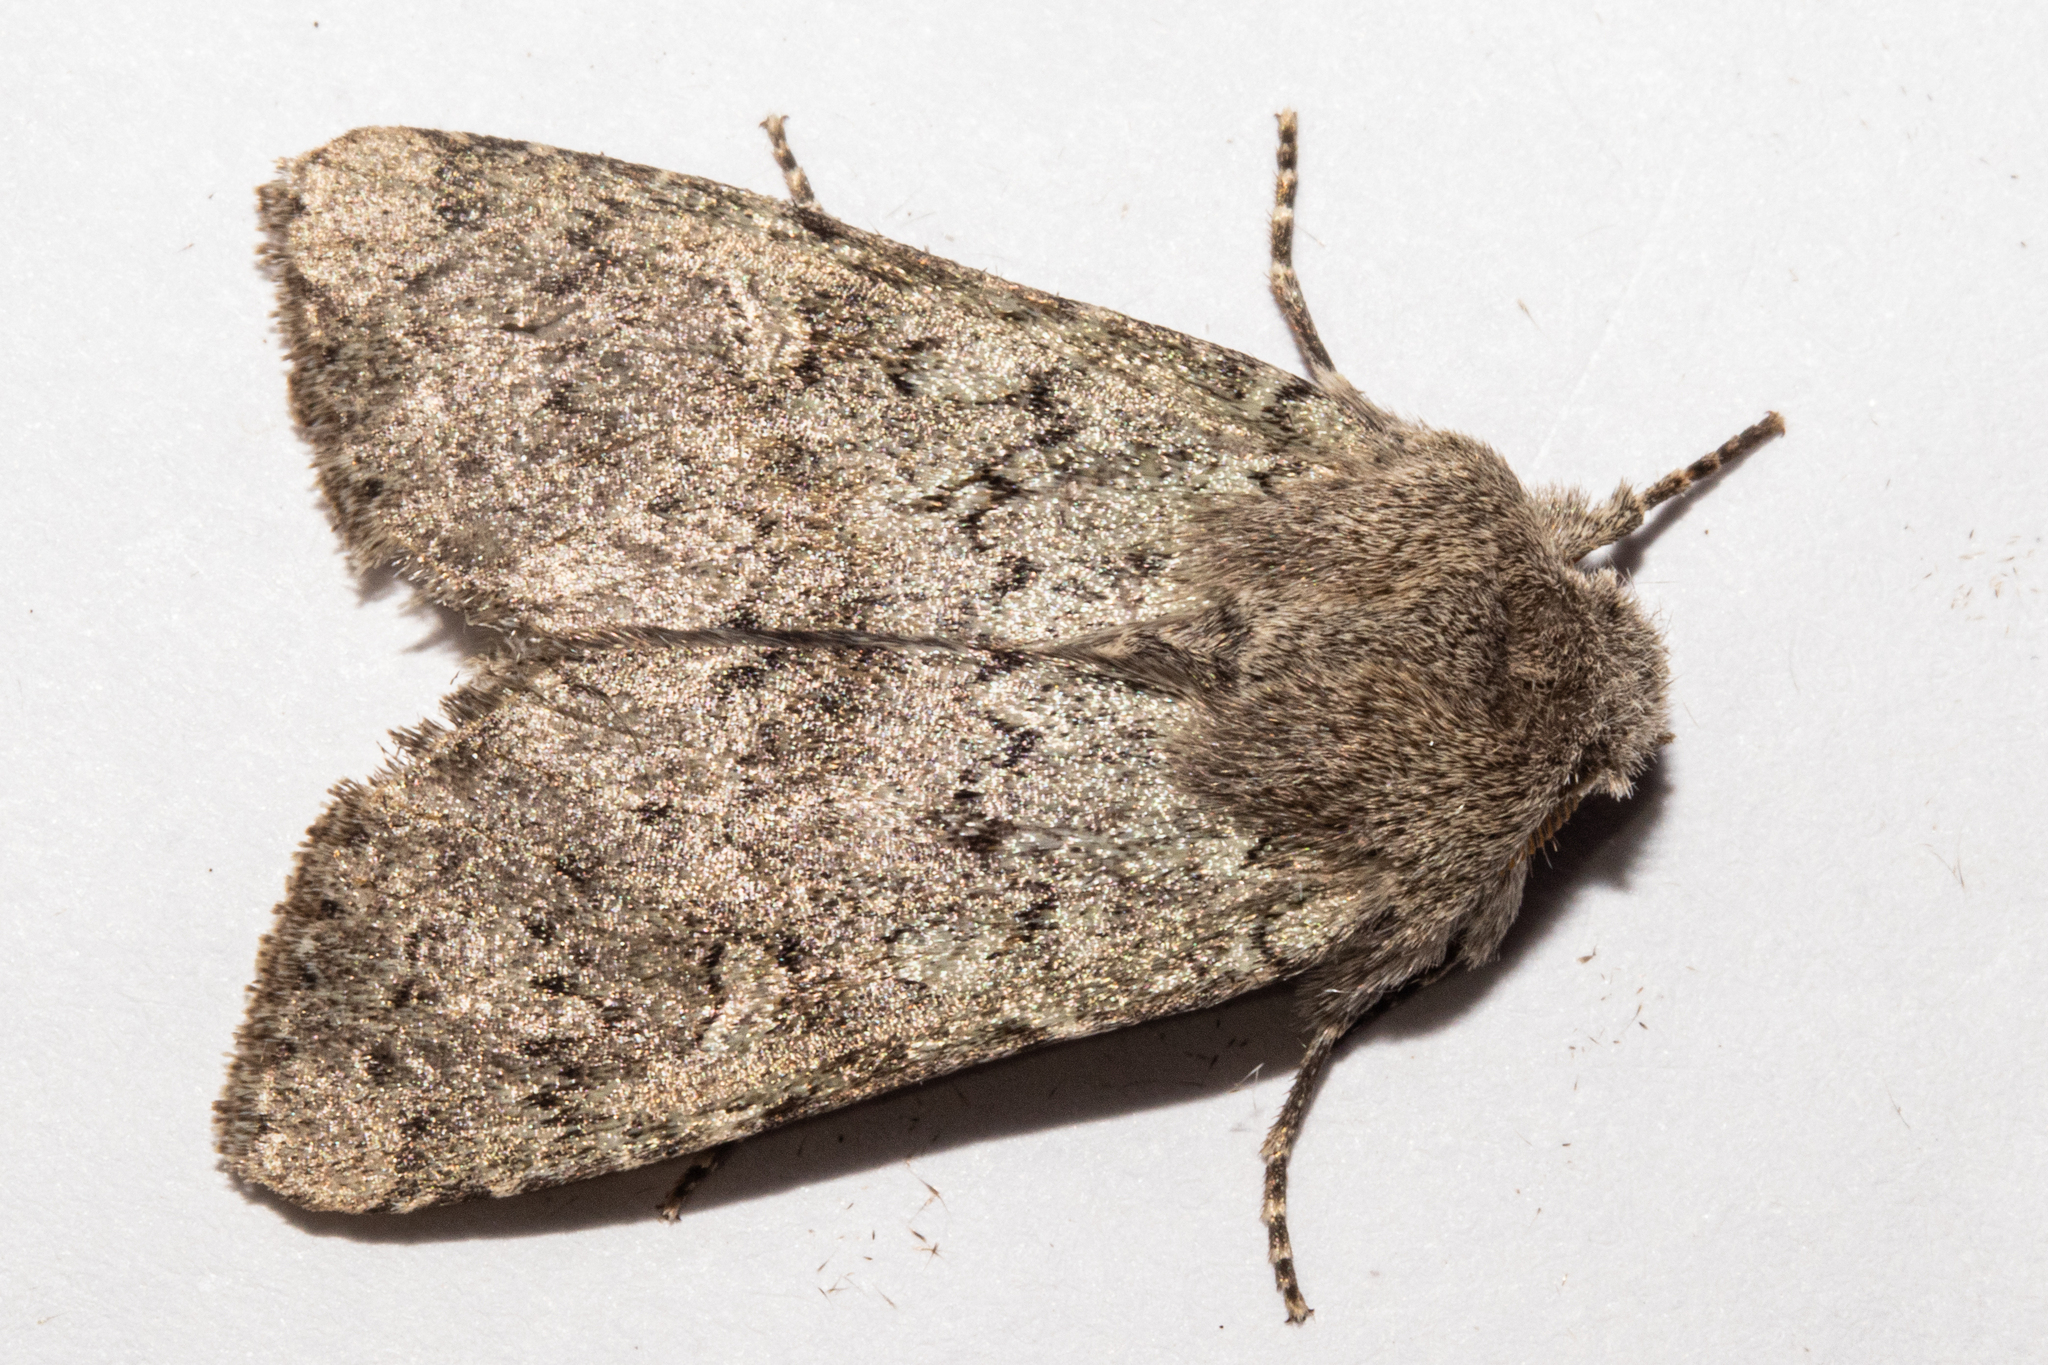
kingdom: Animalia
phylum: Arthropoda
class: Insecta
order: Lepidoptera
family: Noctuidae
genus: Ichneutica
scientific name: Ichneutica
